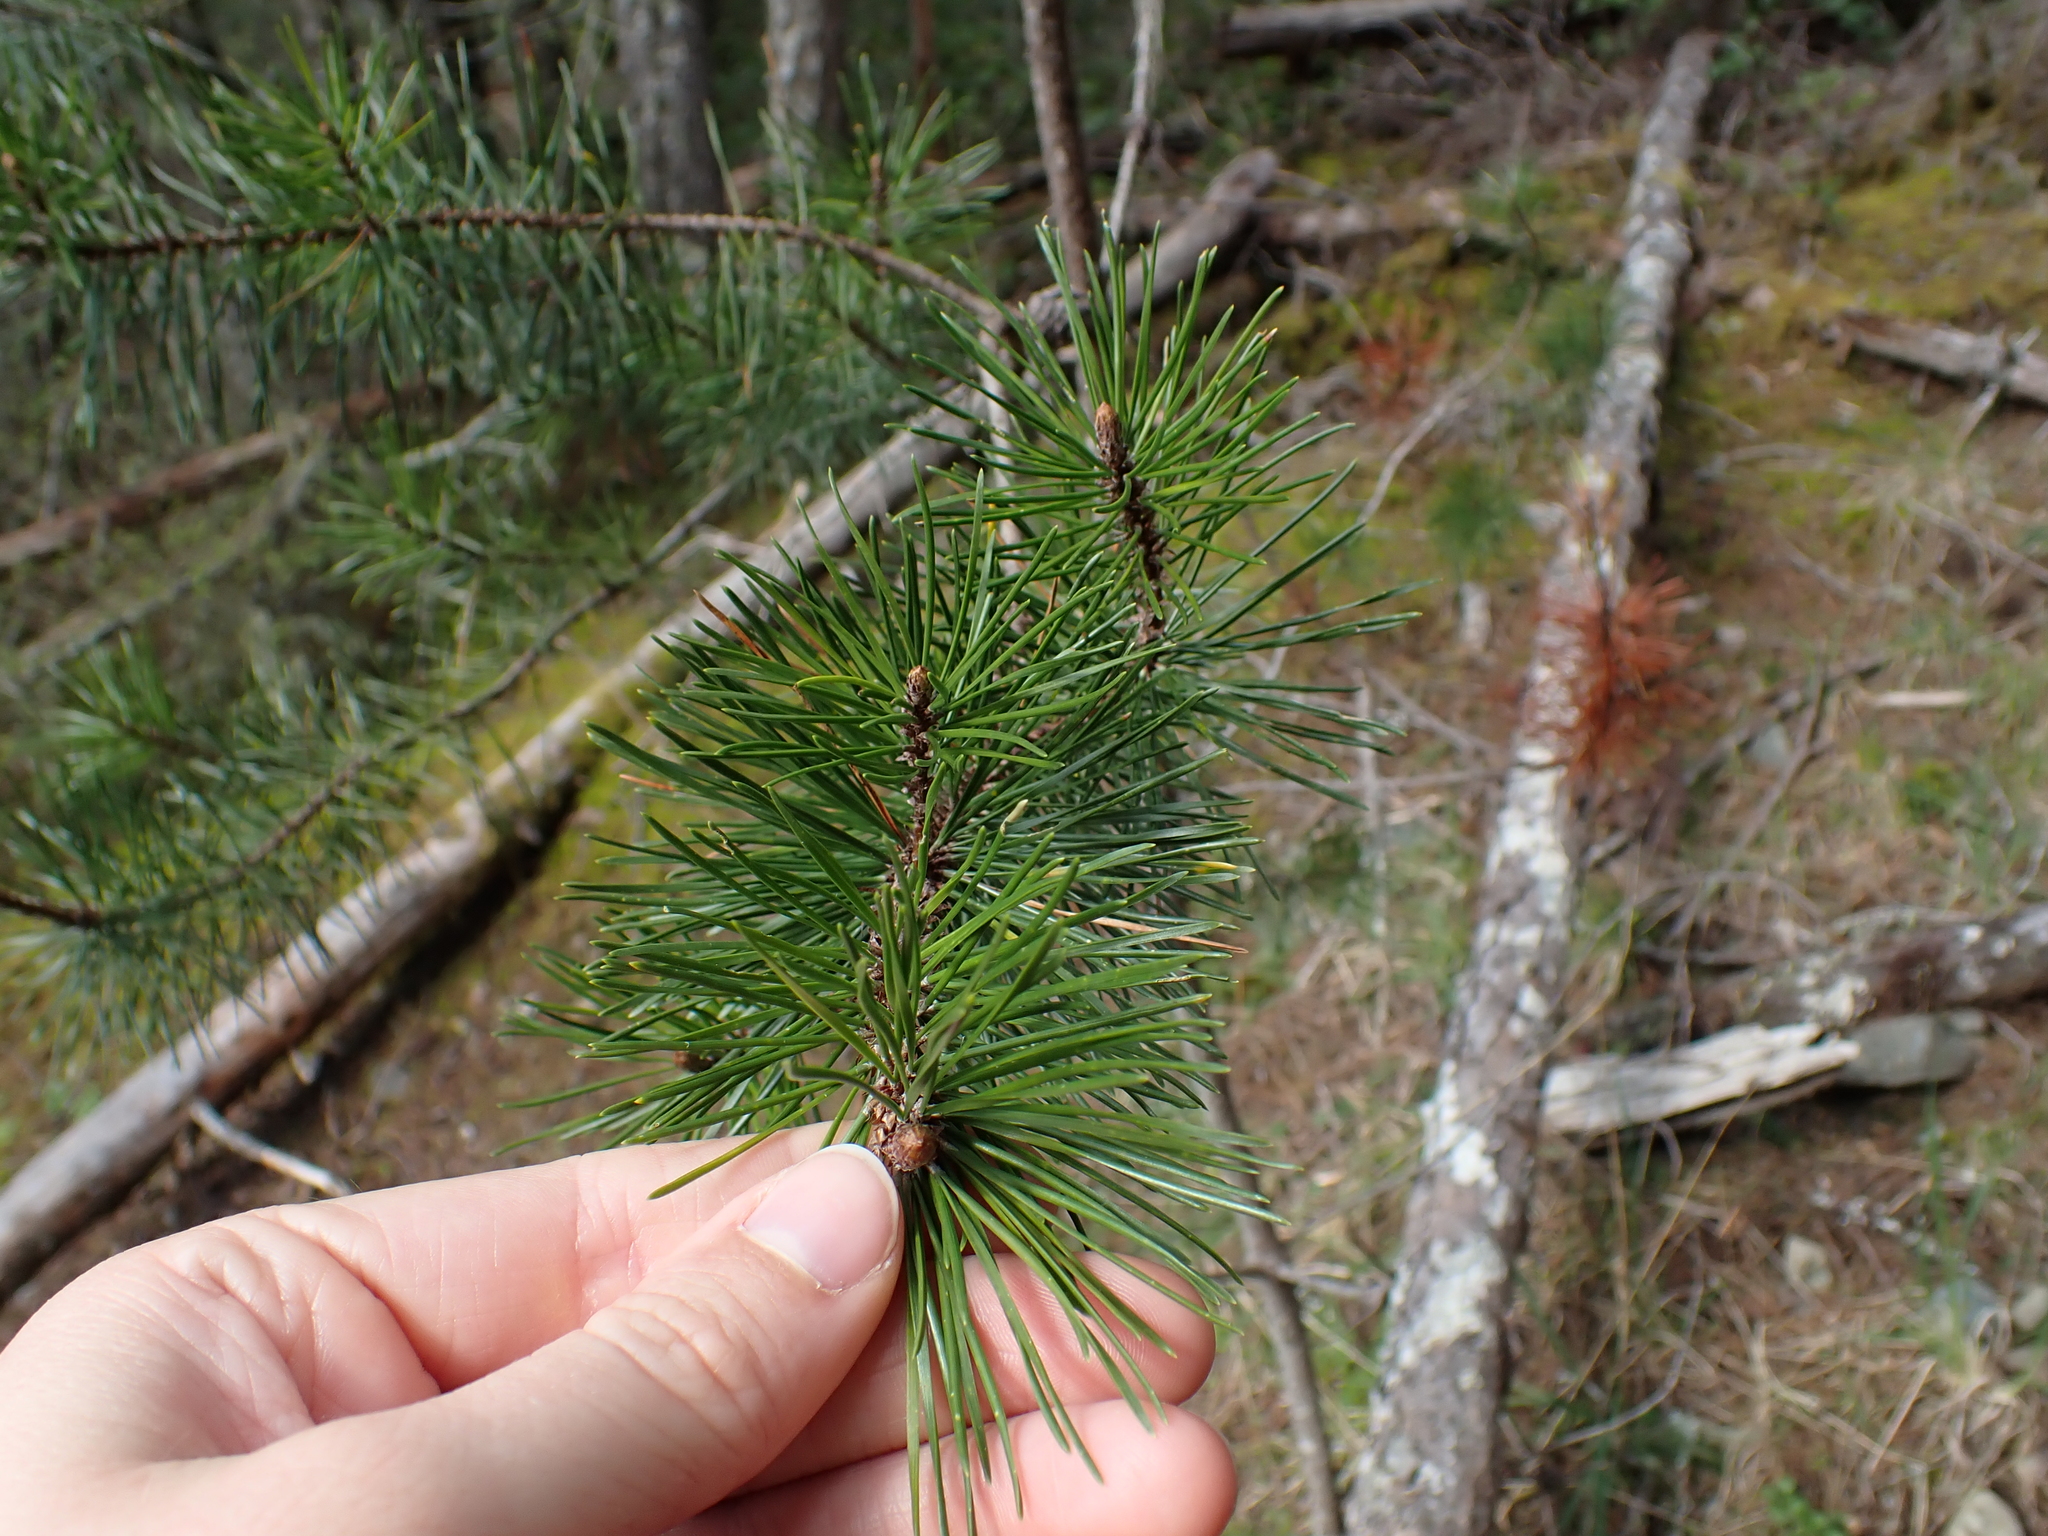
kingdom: Plantae
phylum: Tracheophyta
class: Pinopsida
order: Pinales
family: Pinaceae
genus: Pinus
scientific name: Pinus contorta
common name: Lodgepole pine
